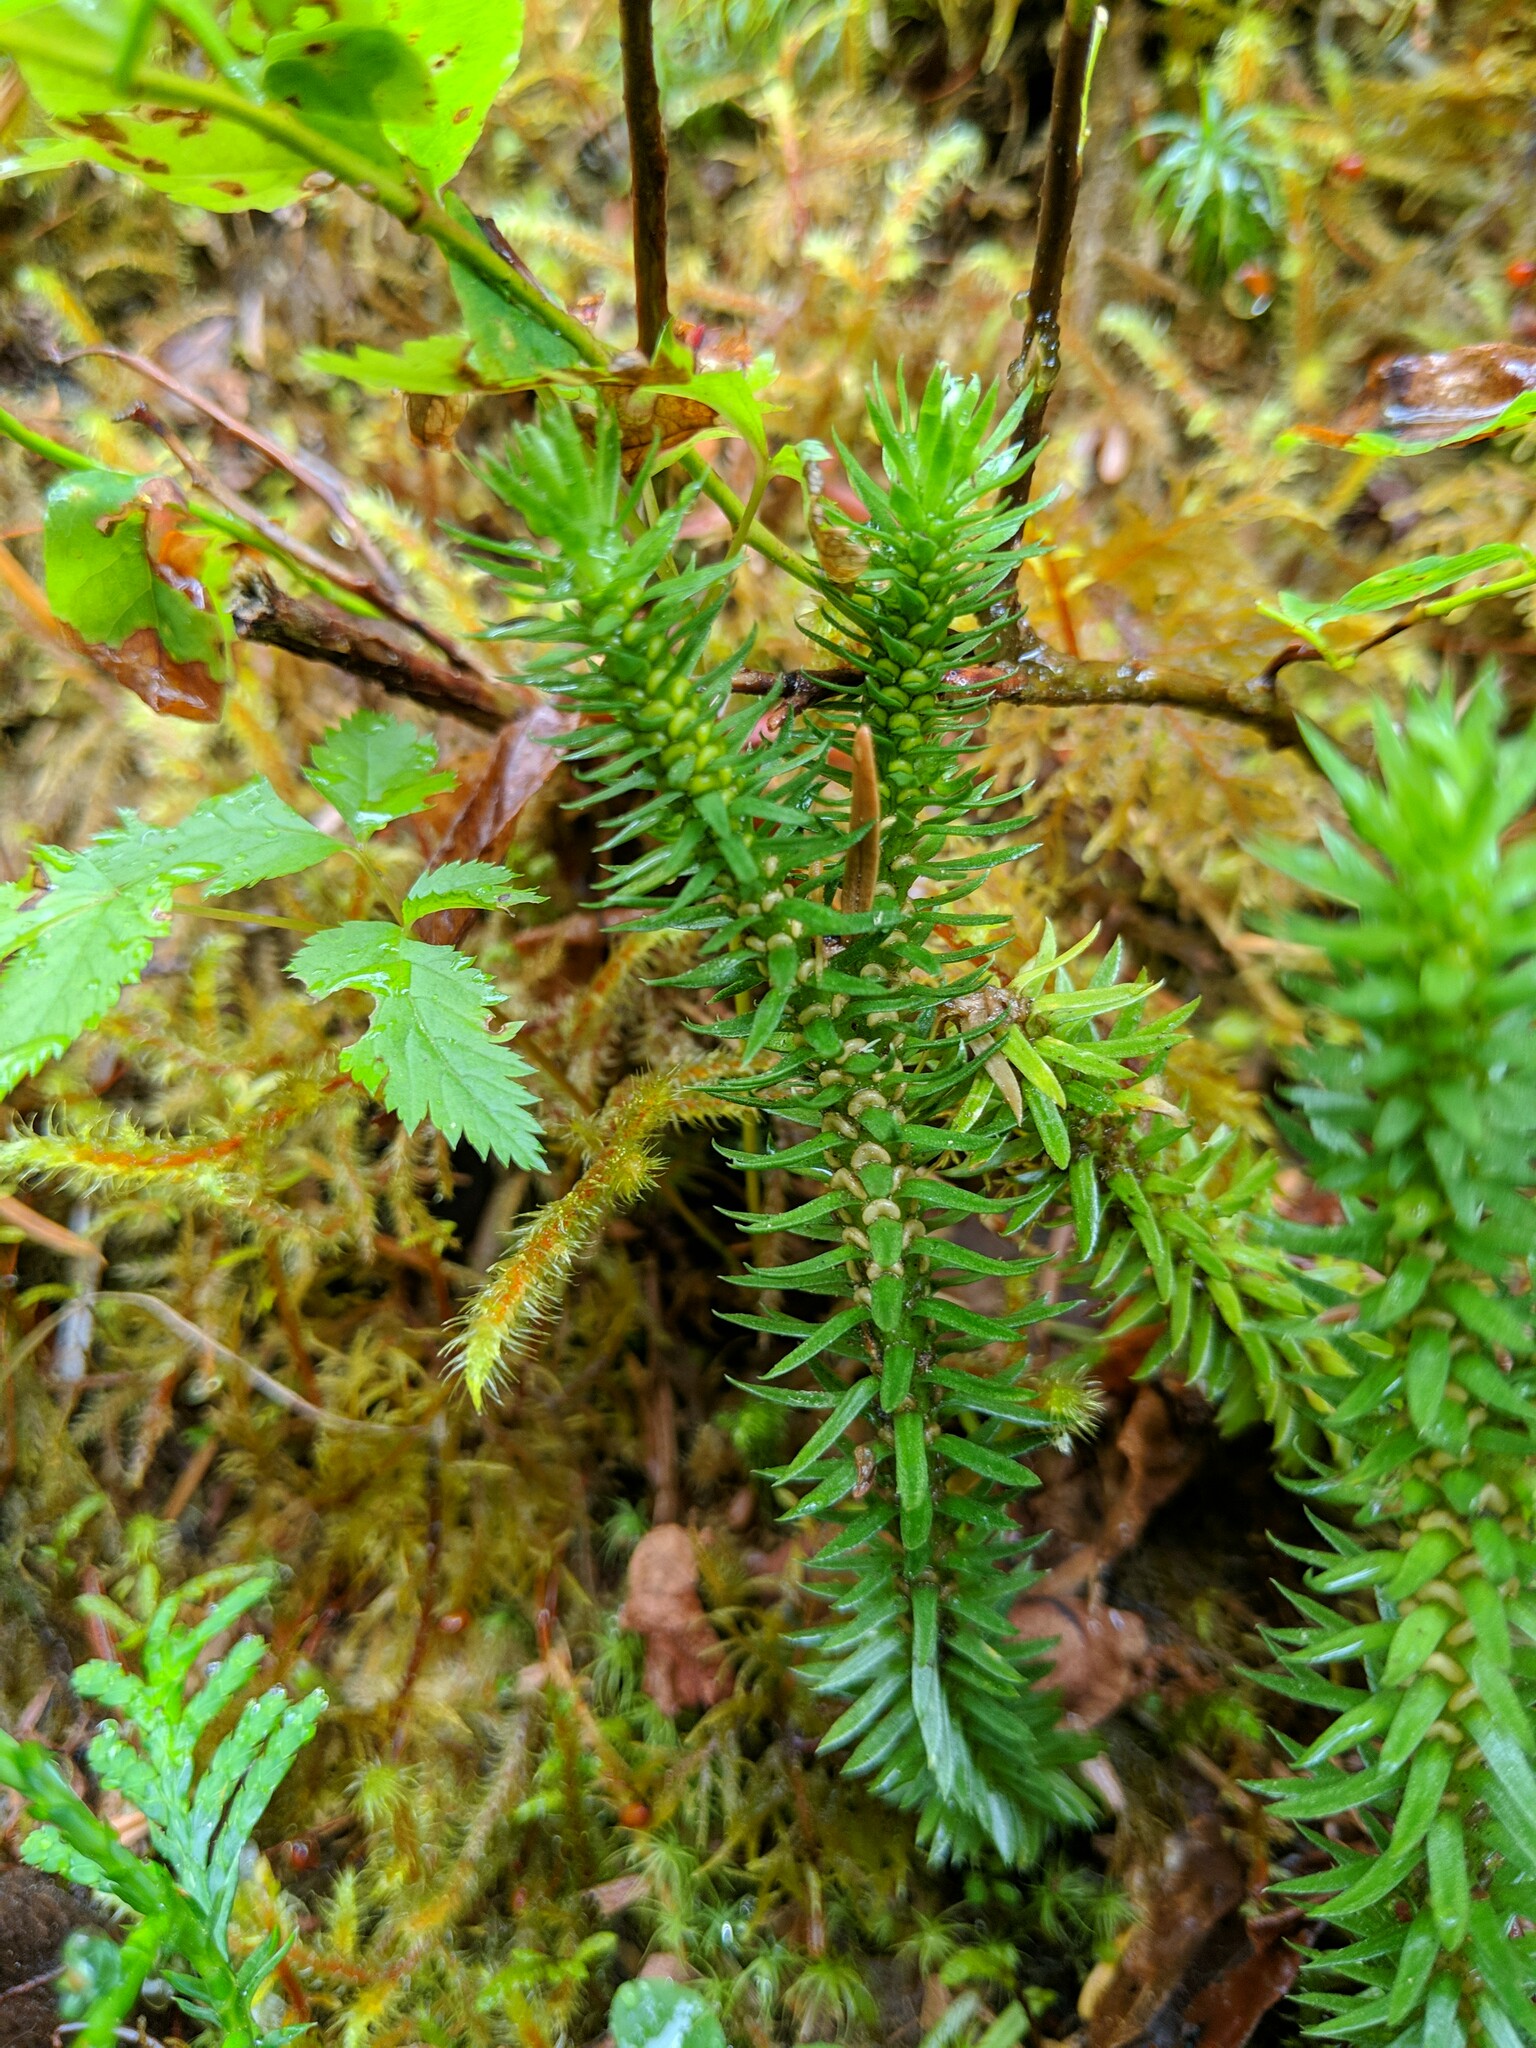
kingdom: Plantae
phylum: Tracheophyta
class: Lycopodiopsida
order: Lycopodiales
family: Lycopodiaceae
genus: Huperzia
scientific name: Huperzia occidentalis
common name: Western clubmoss
